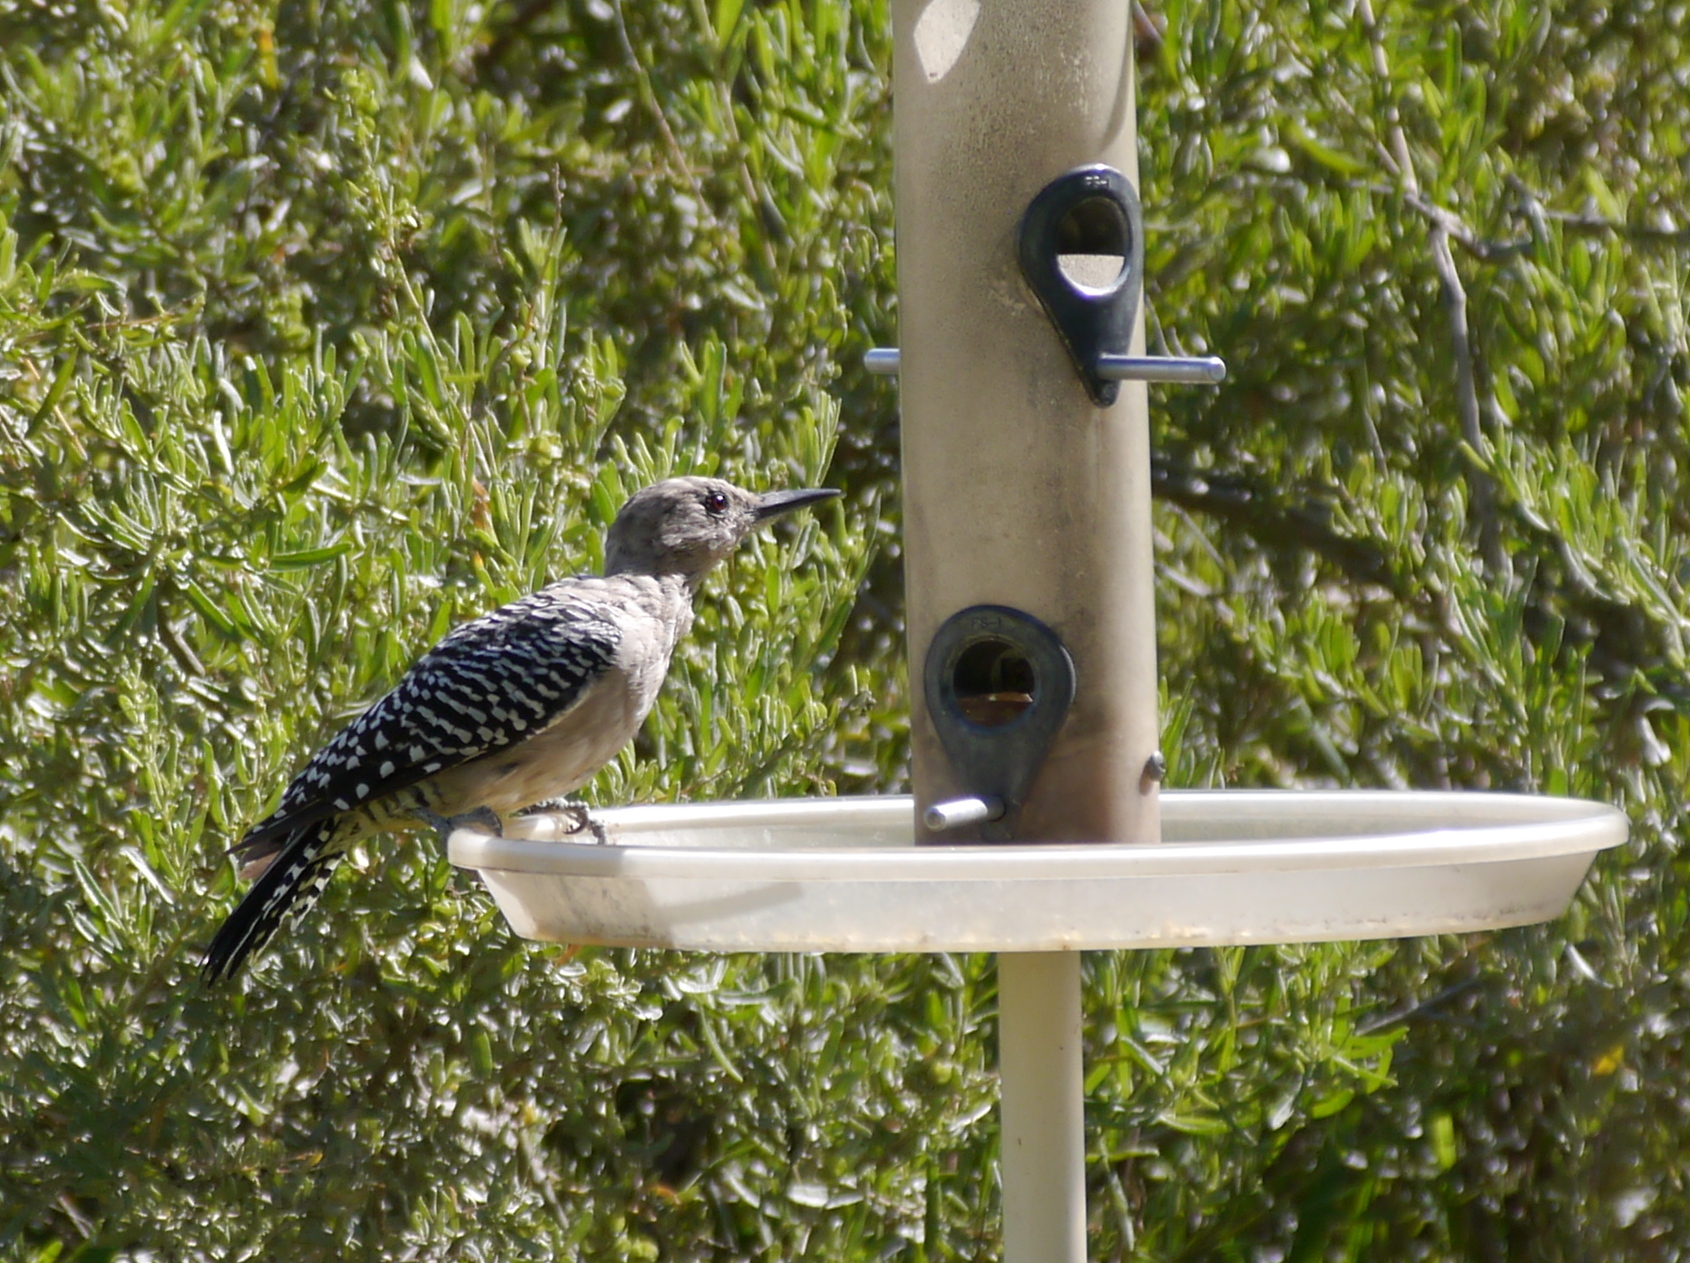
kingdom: Animalia
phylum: Chordata
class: Aves
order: Piciformes
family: Picidae
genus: Melanerpes
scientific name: Melanerpes uropygialis
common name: Gila woodpecker
